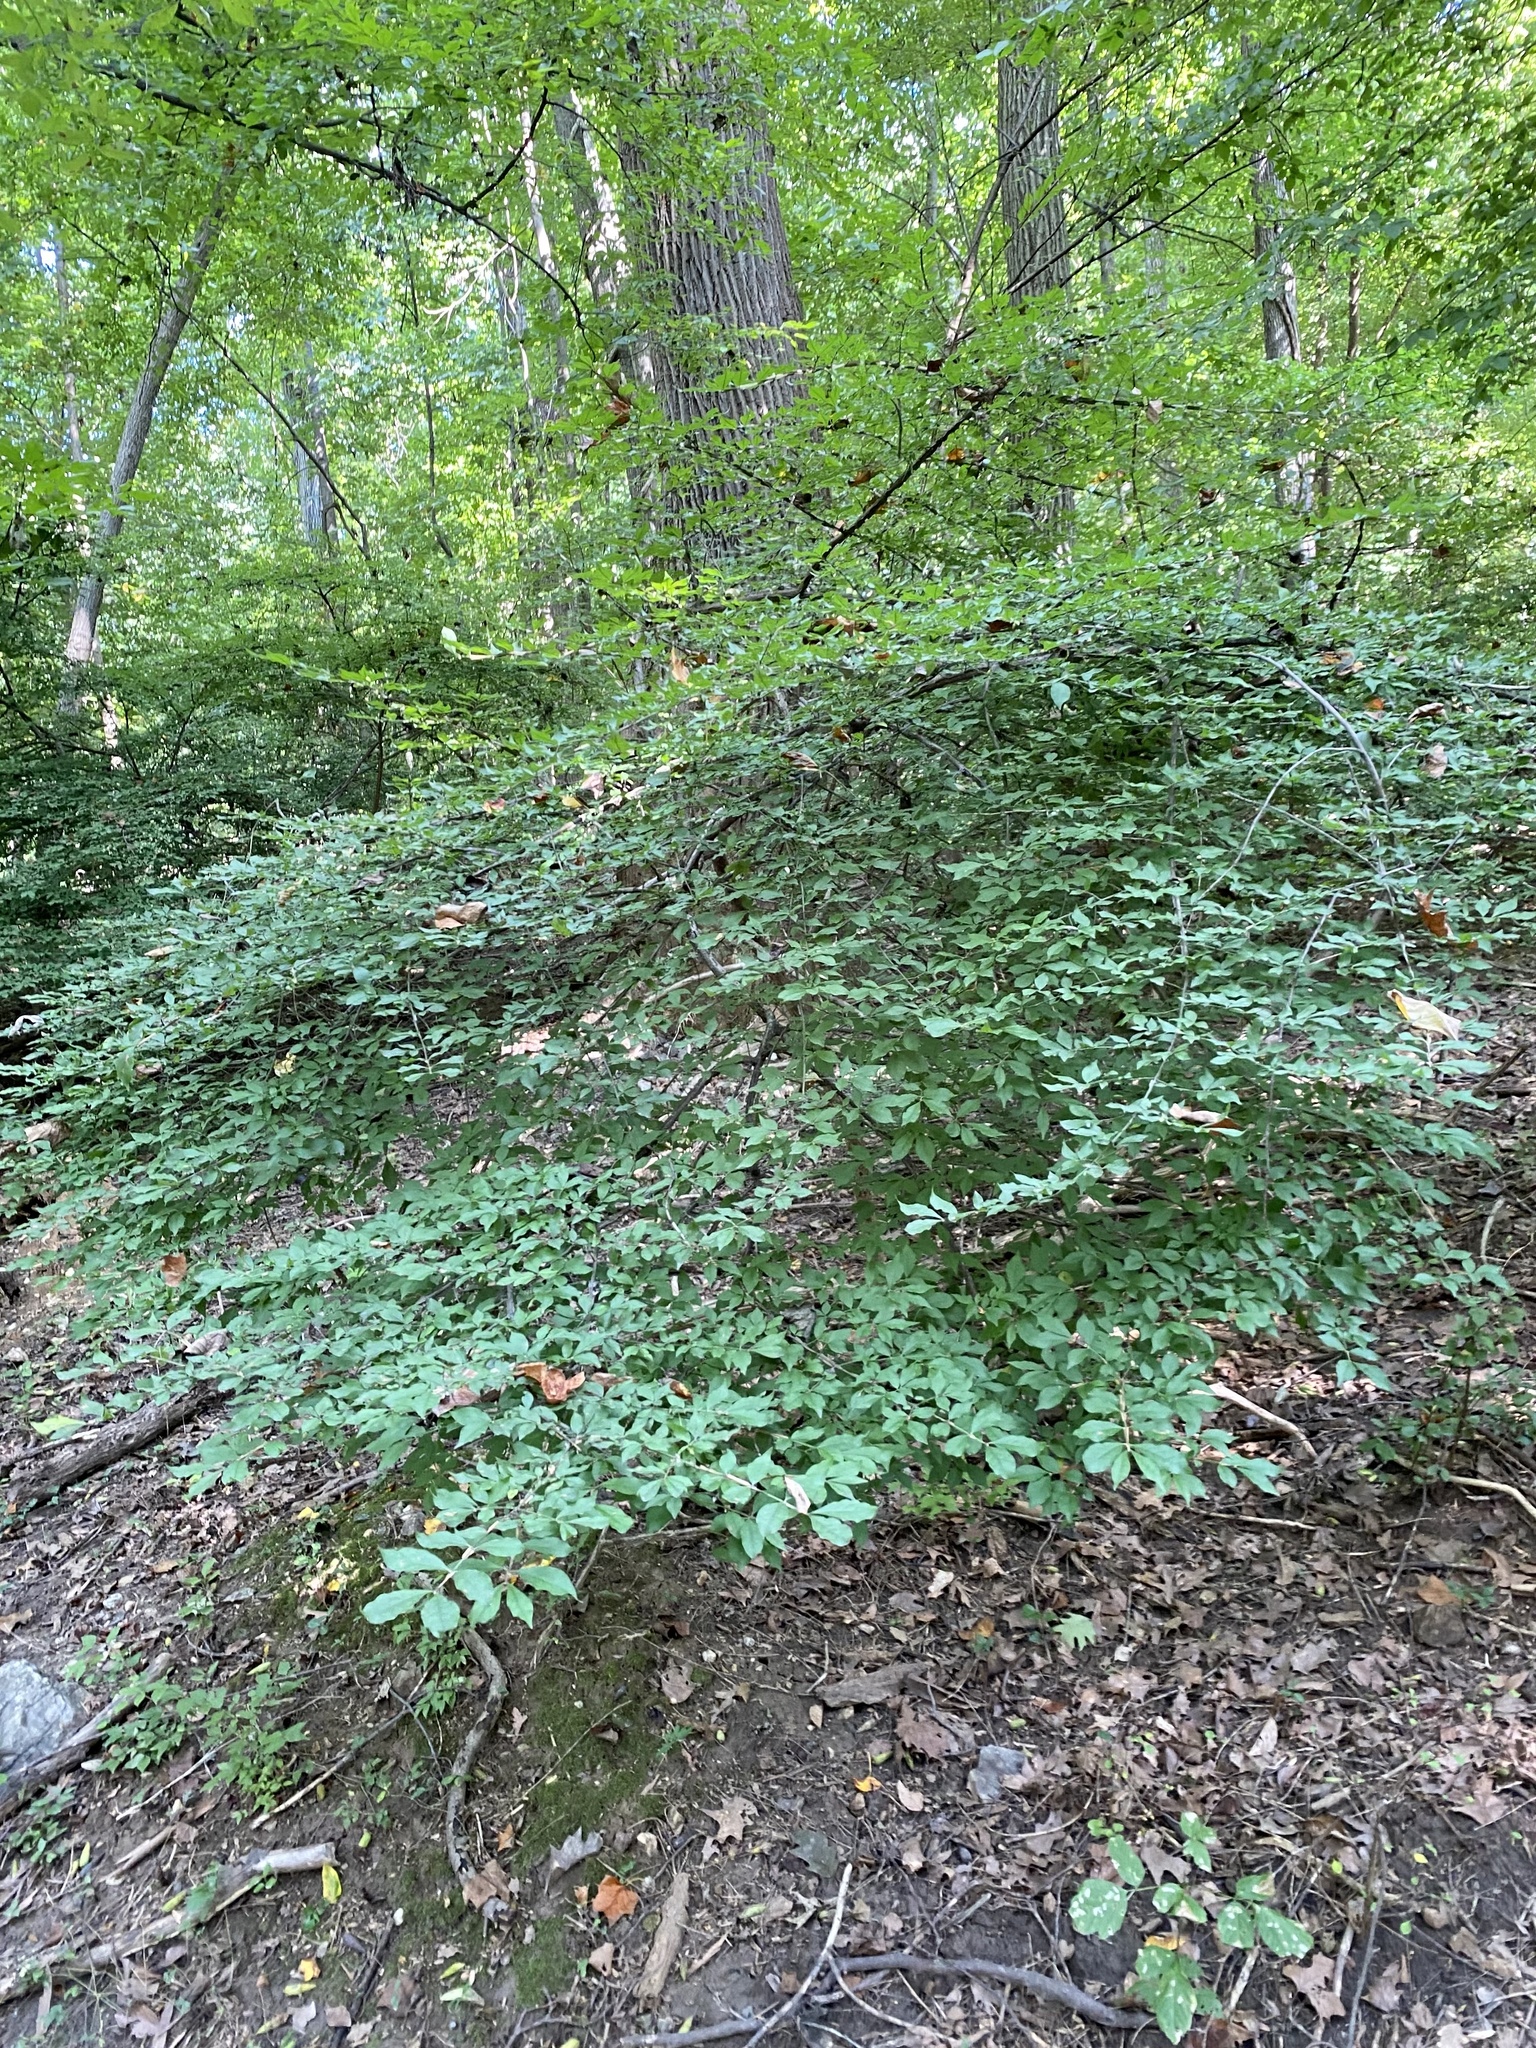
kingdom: Plantae
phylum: Tracheophyta
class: Magnoliopsida
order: Celastrales
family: Celastraceae
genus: Euonymus
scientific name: Euonymus alatus
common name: Winged euonymus
